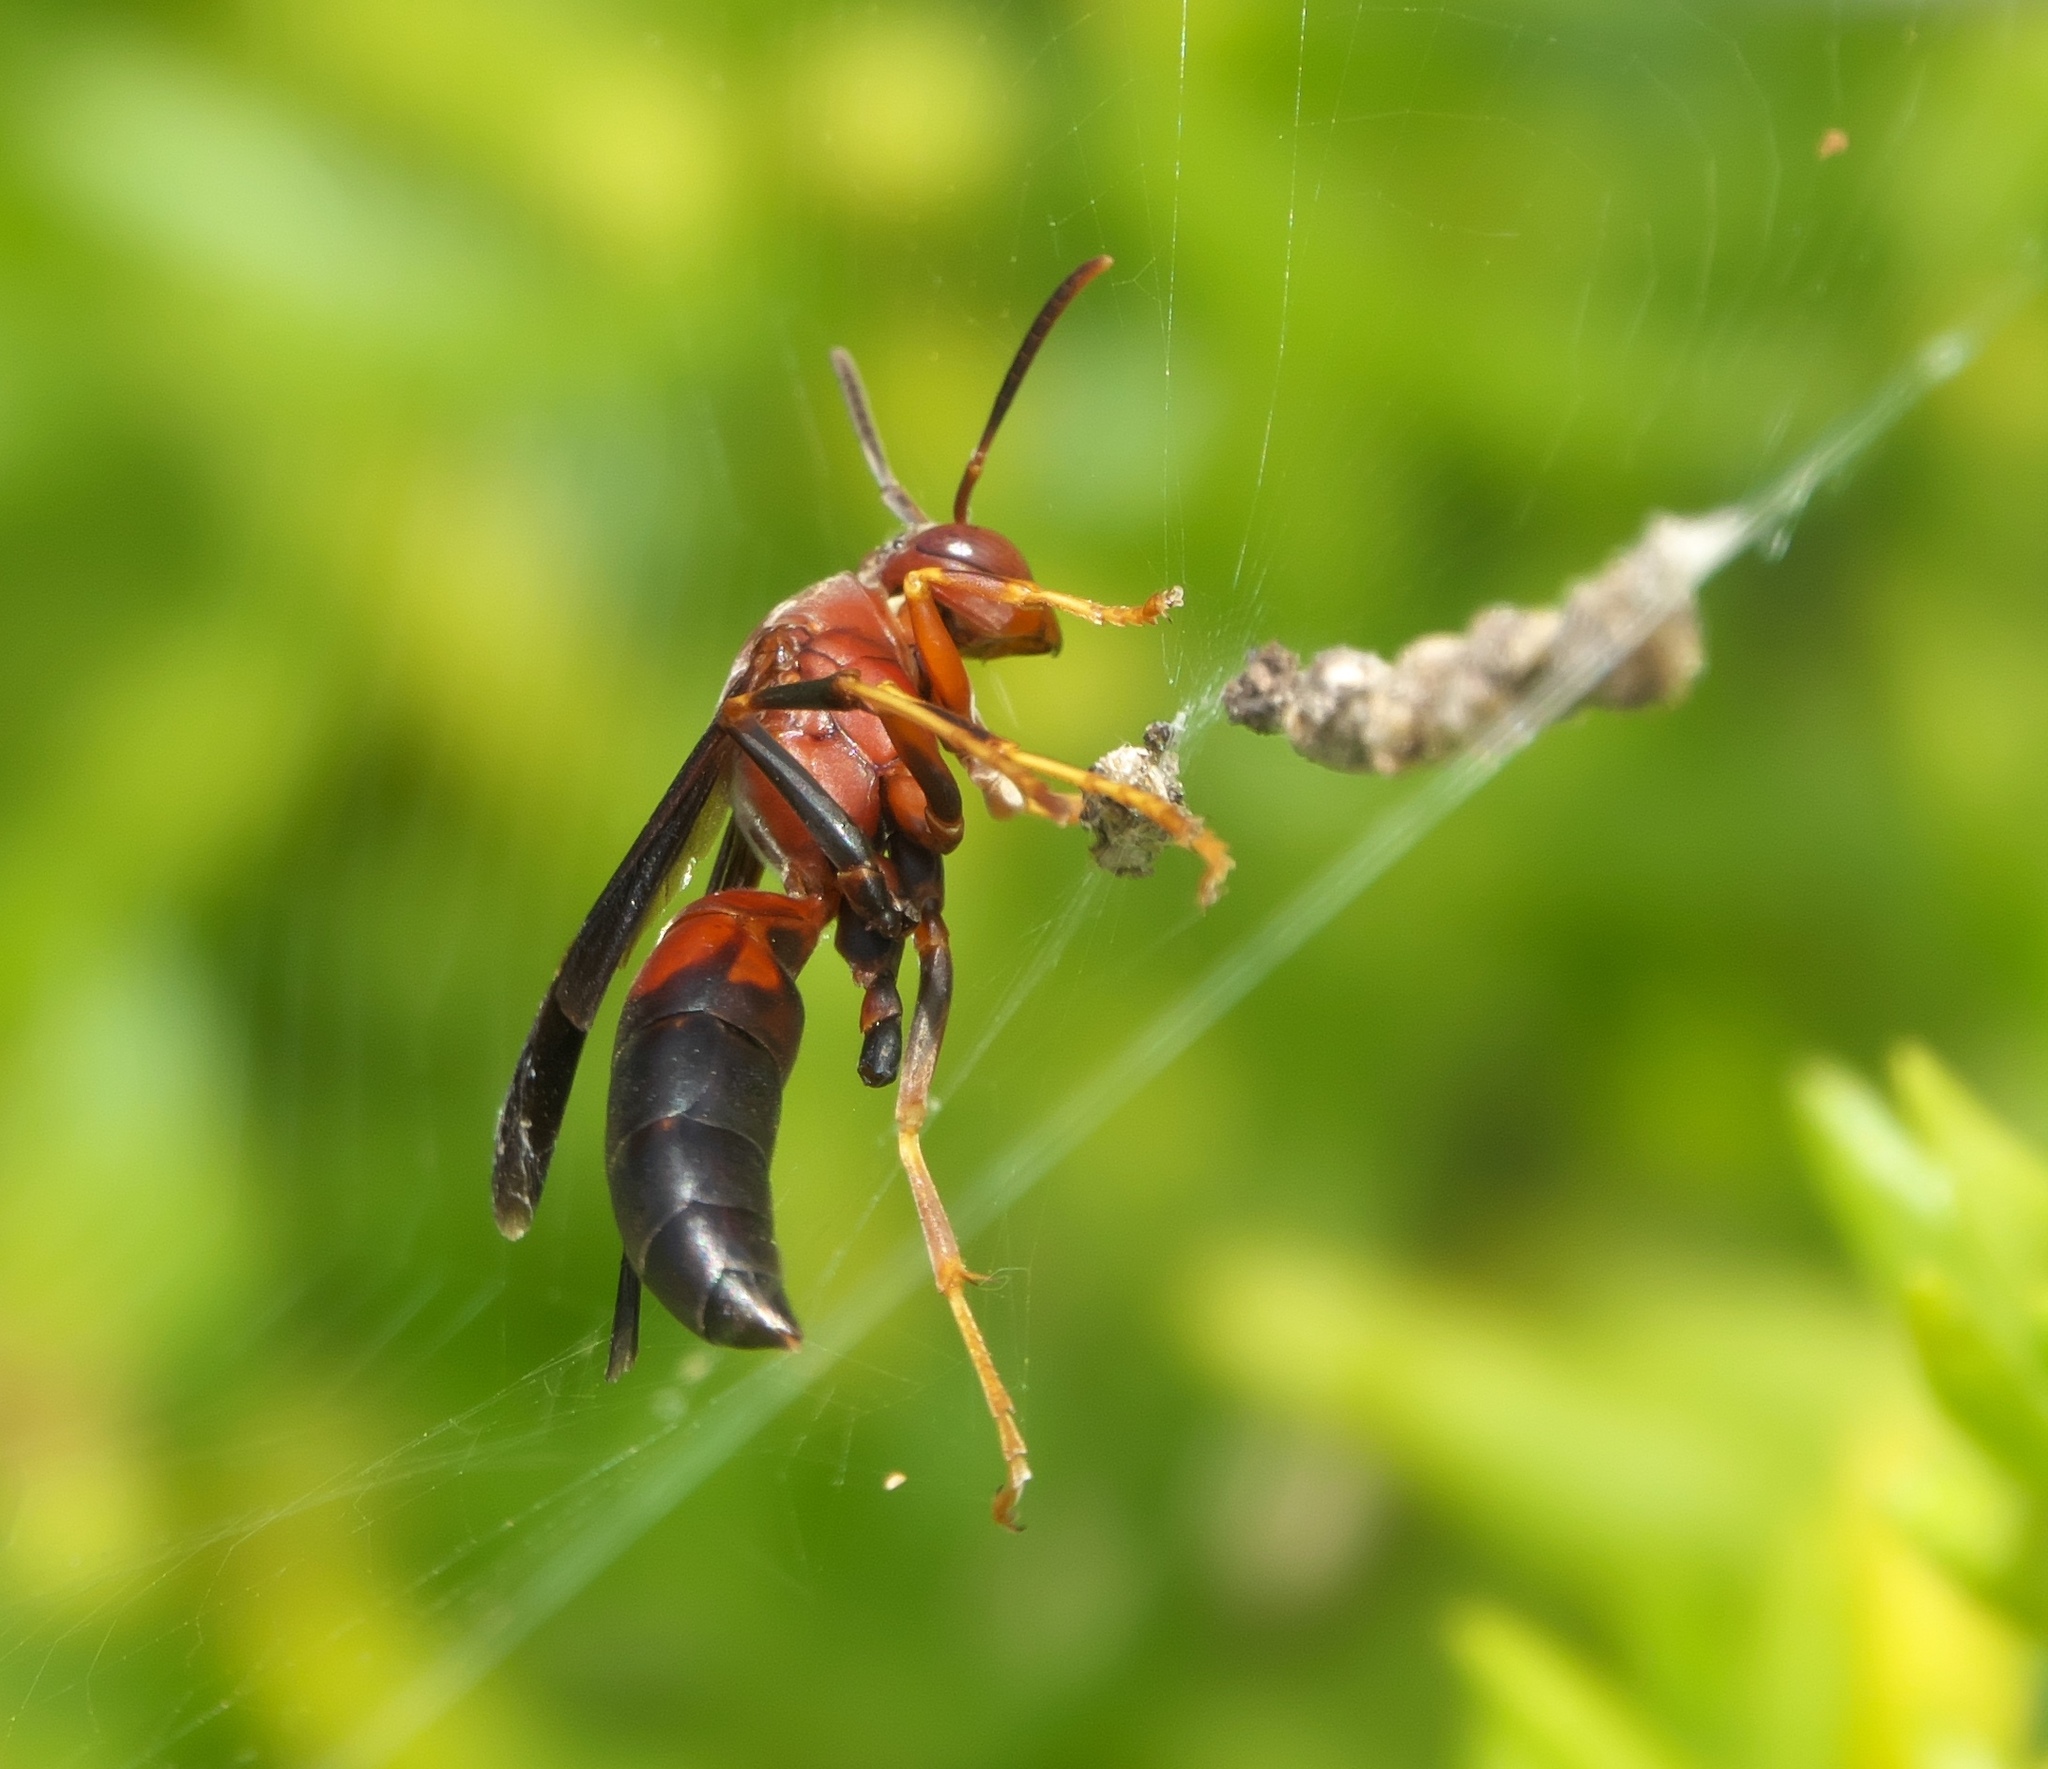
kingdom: Animalia
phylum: Arthropoda
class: Insecta
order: Hymenoptera
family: Eumenidae
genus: Polistes
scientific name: Polistes metricus
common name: Metric paper wasp
